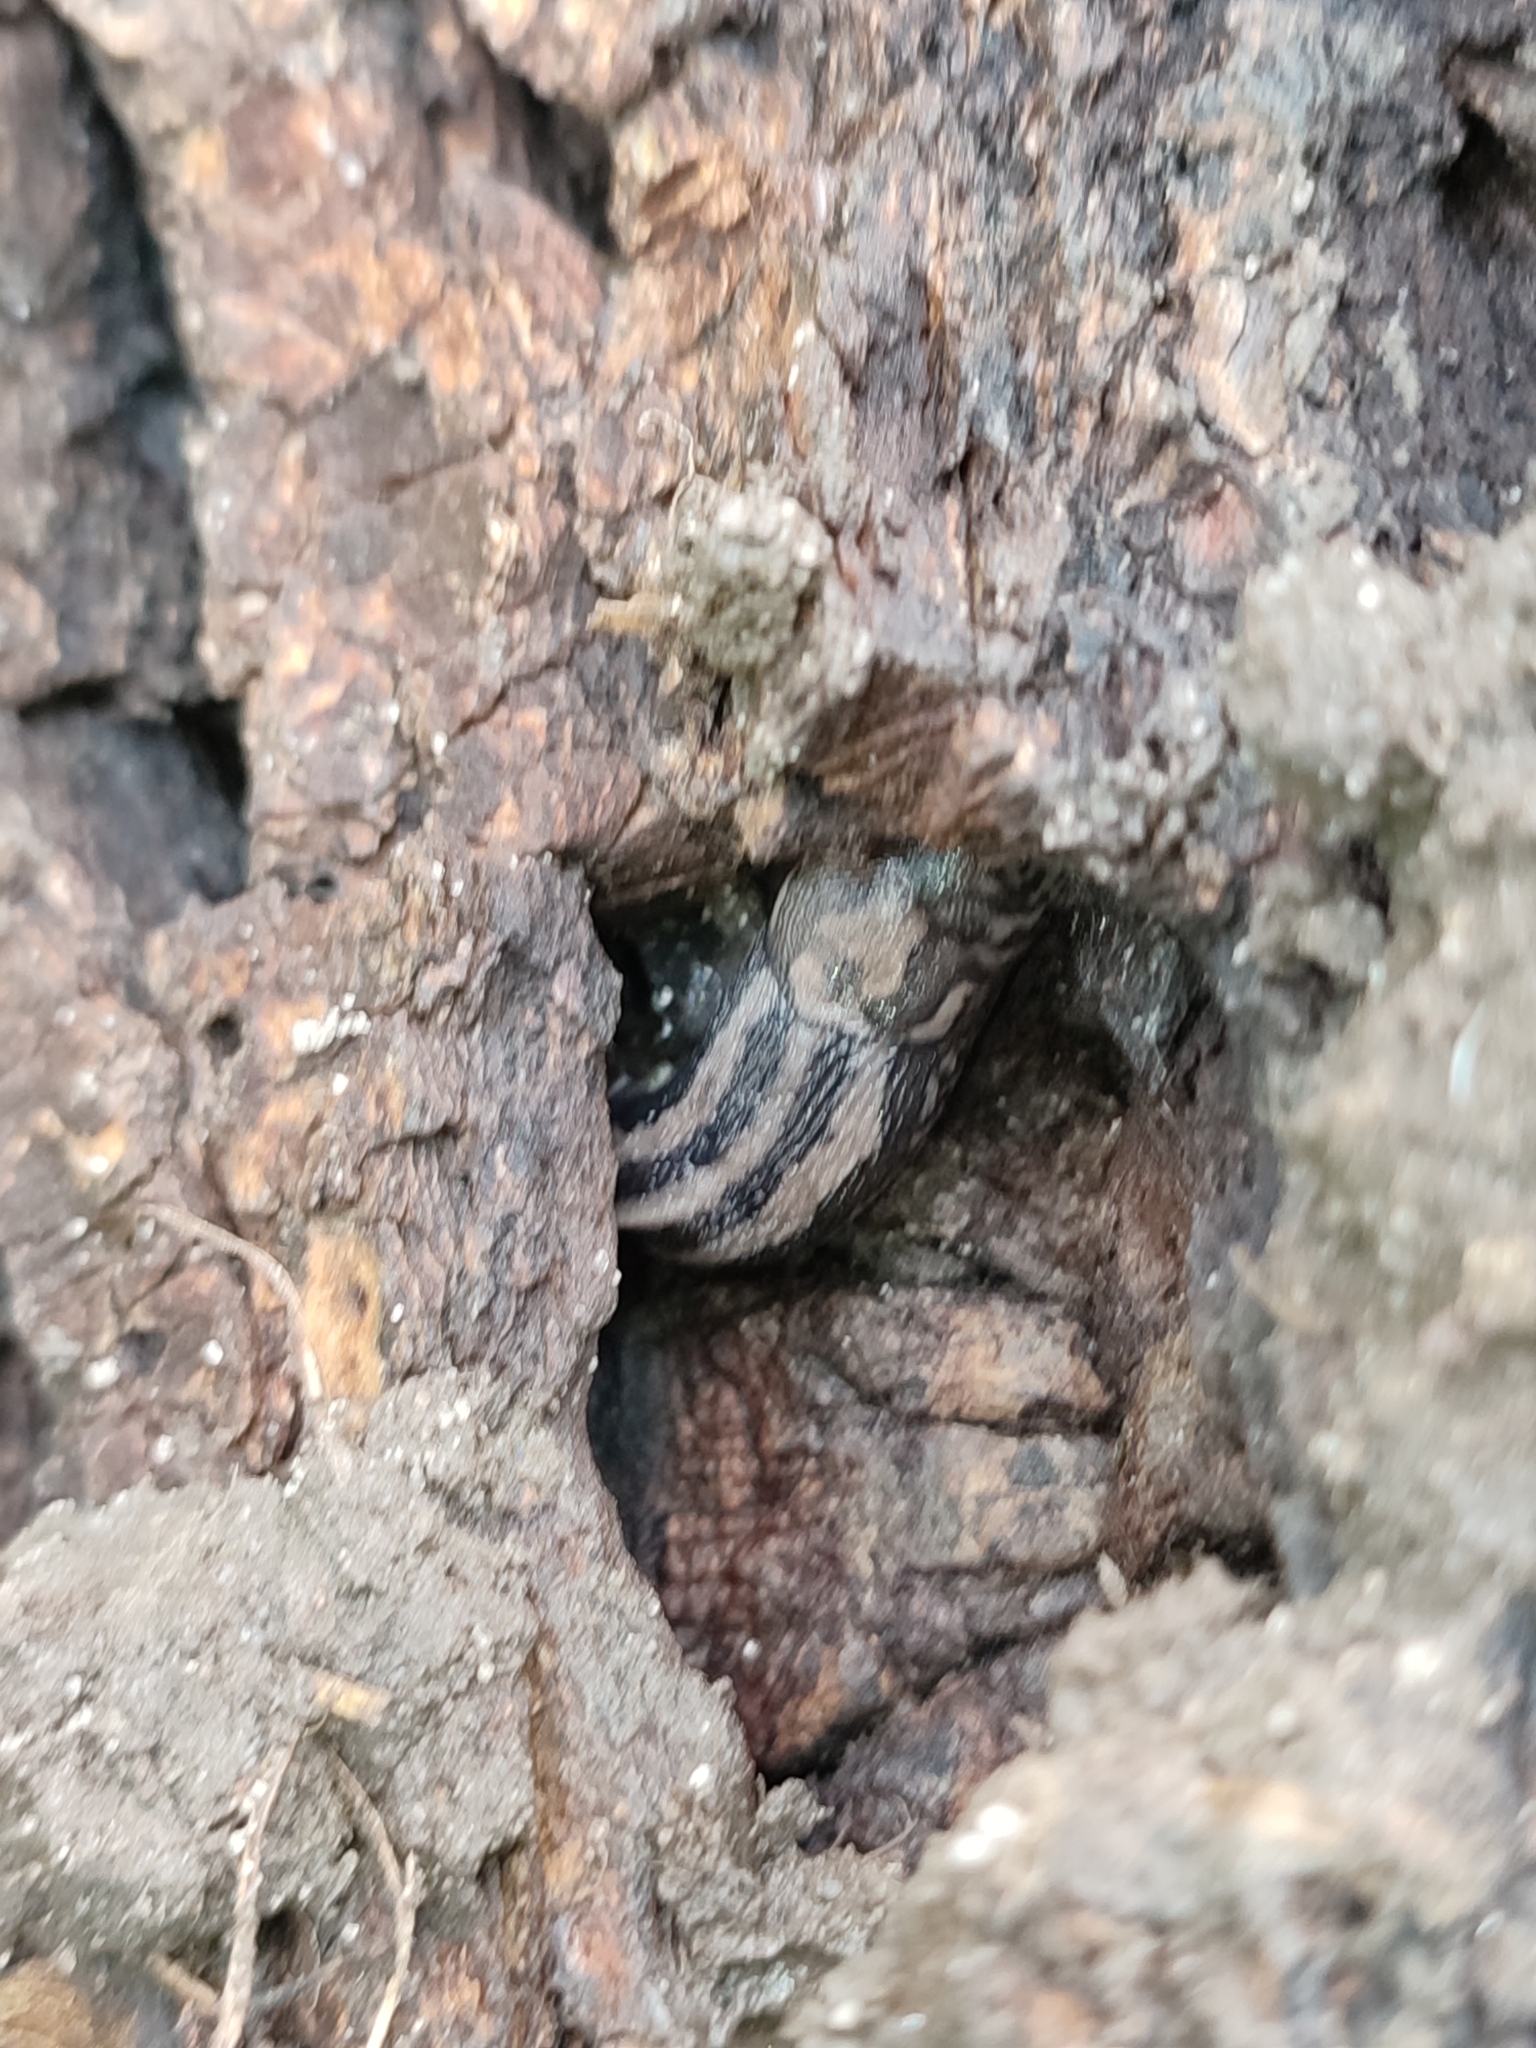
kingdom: Animalia
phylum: Mollusca
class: Gastropoda
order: Stylommatophora
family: Limacidae
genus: Limax
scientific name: Limax maximus
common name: Great grey slug
